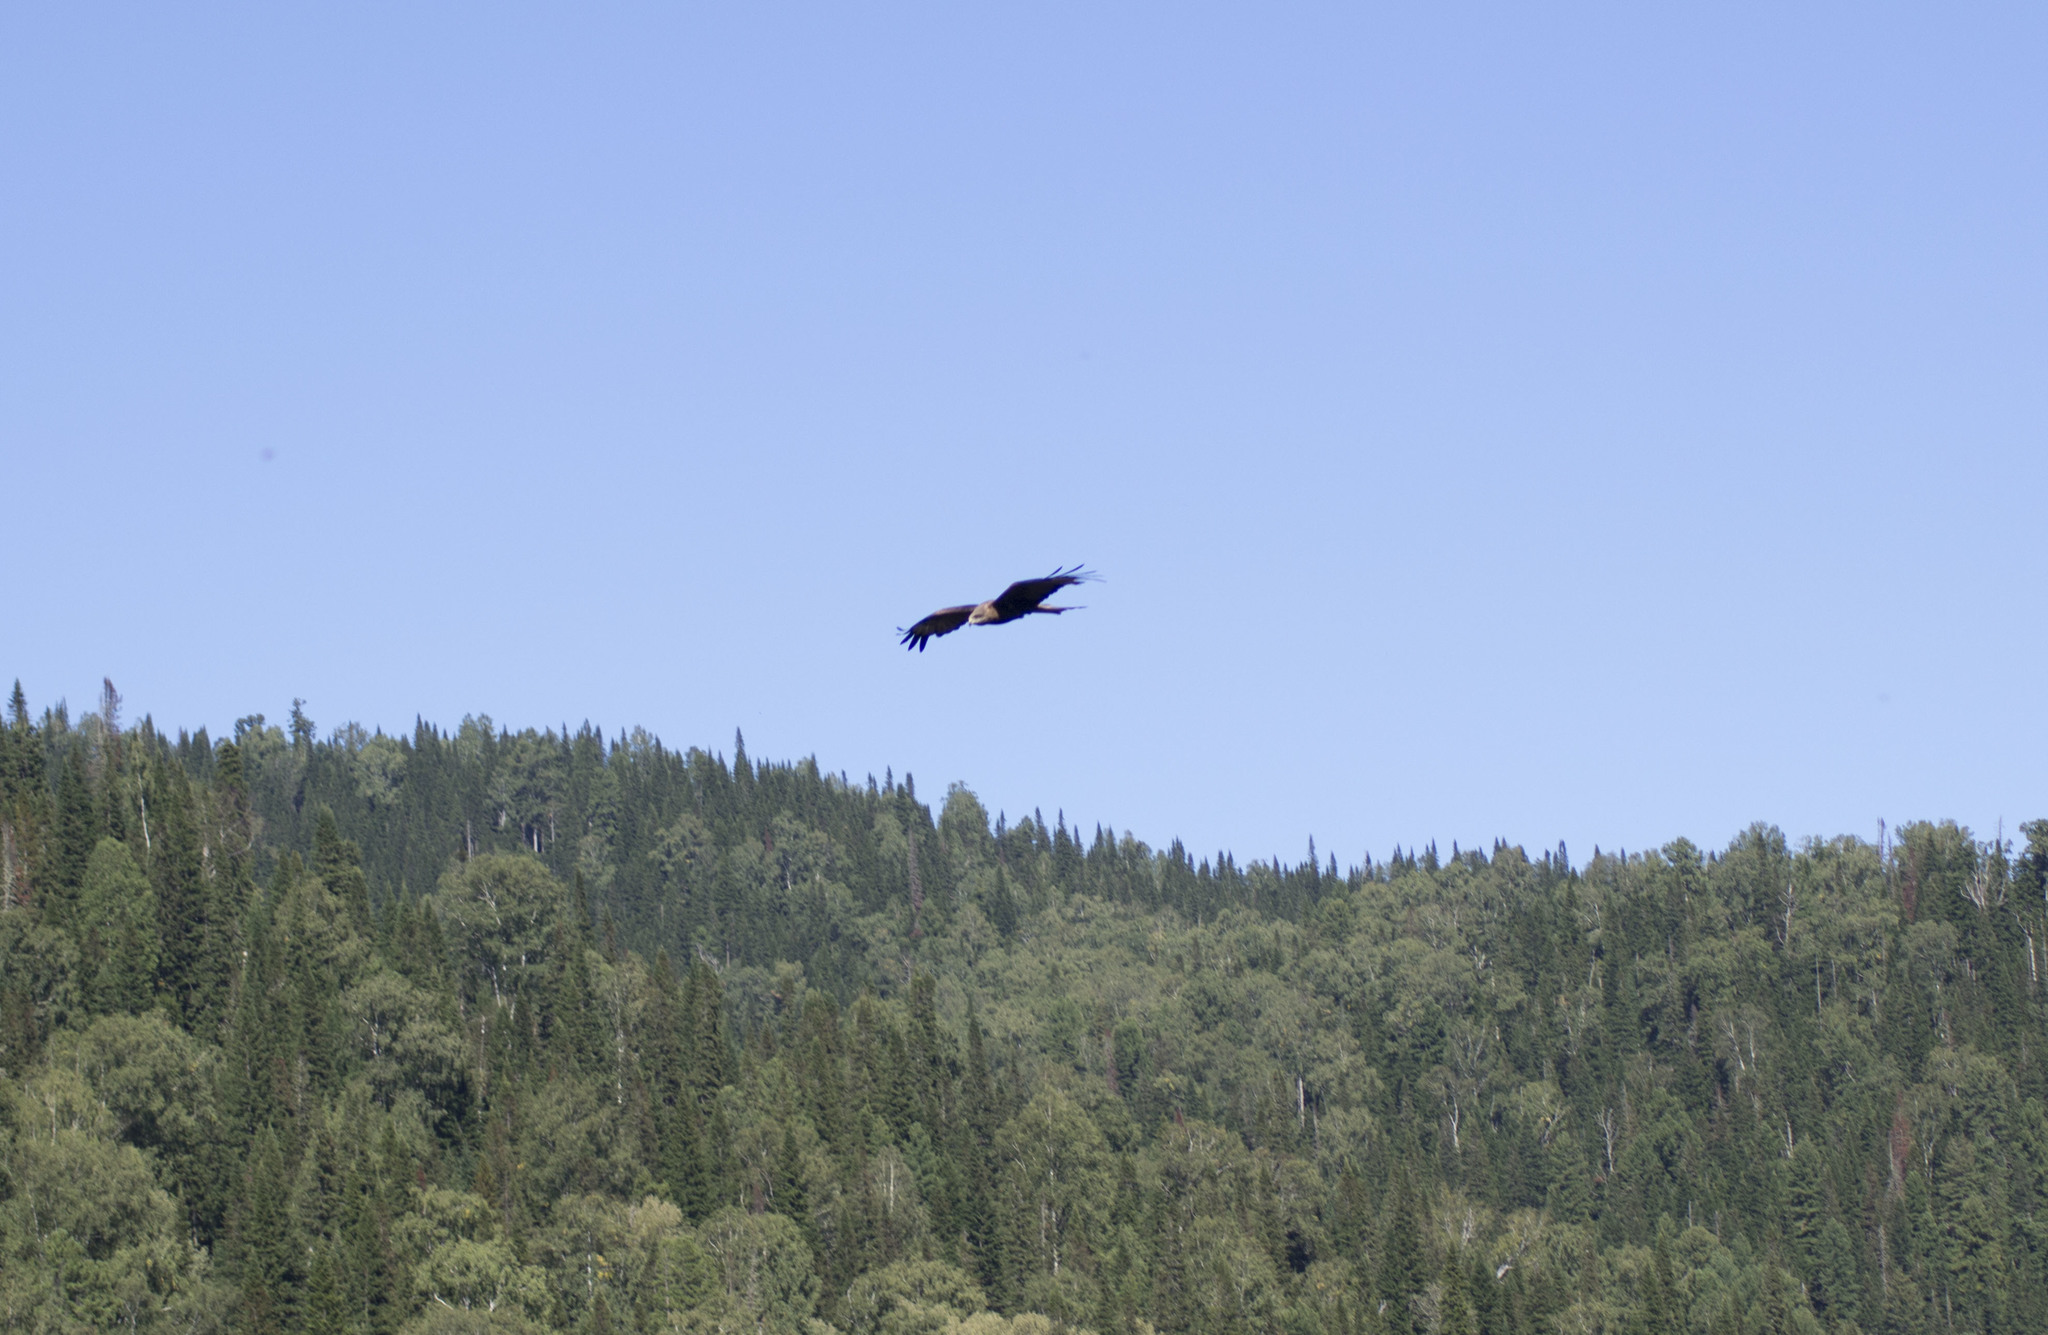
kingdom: Animalia
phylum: Chordata
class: Aves
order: Accipitriformes
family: Accipitridae
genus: Milvus
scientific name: Milvus migrans
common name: Black kite
